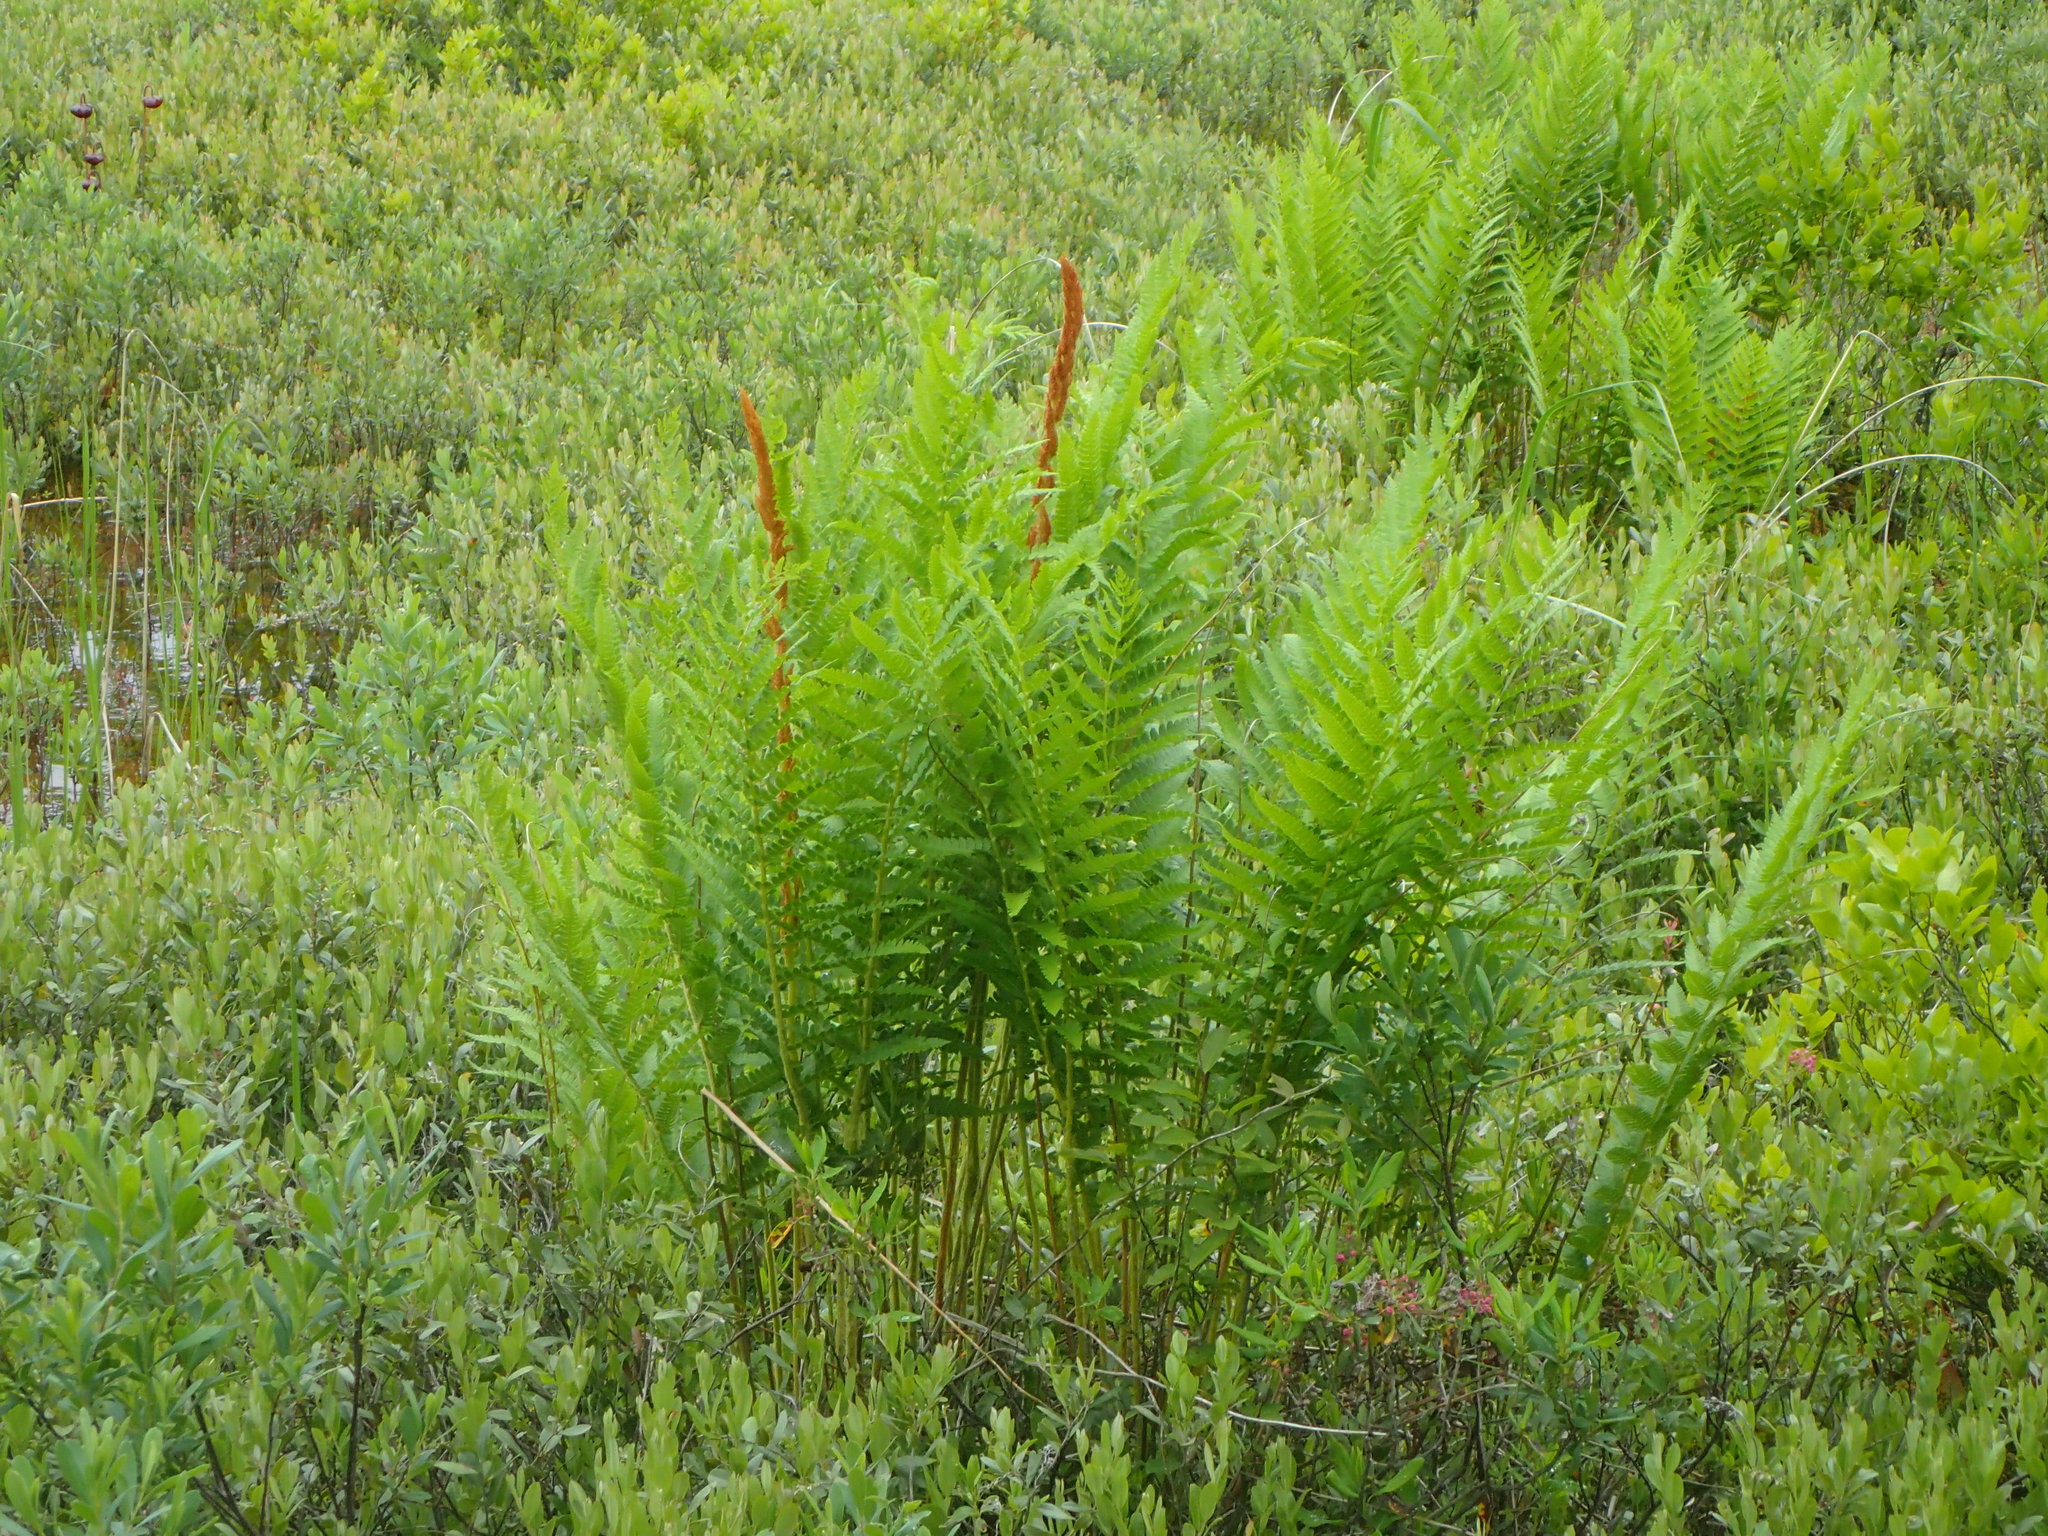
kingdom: Plantae
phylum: Tracheophyta
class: Polypodiopsida
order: Osmundales
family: Osmundaceae
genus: Osmundastrum
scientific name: Osmundastrum cinnamomeum
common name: Cinnamon fern
